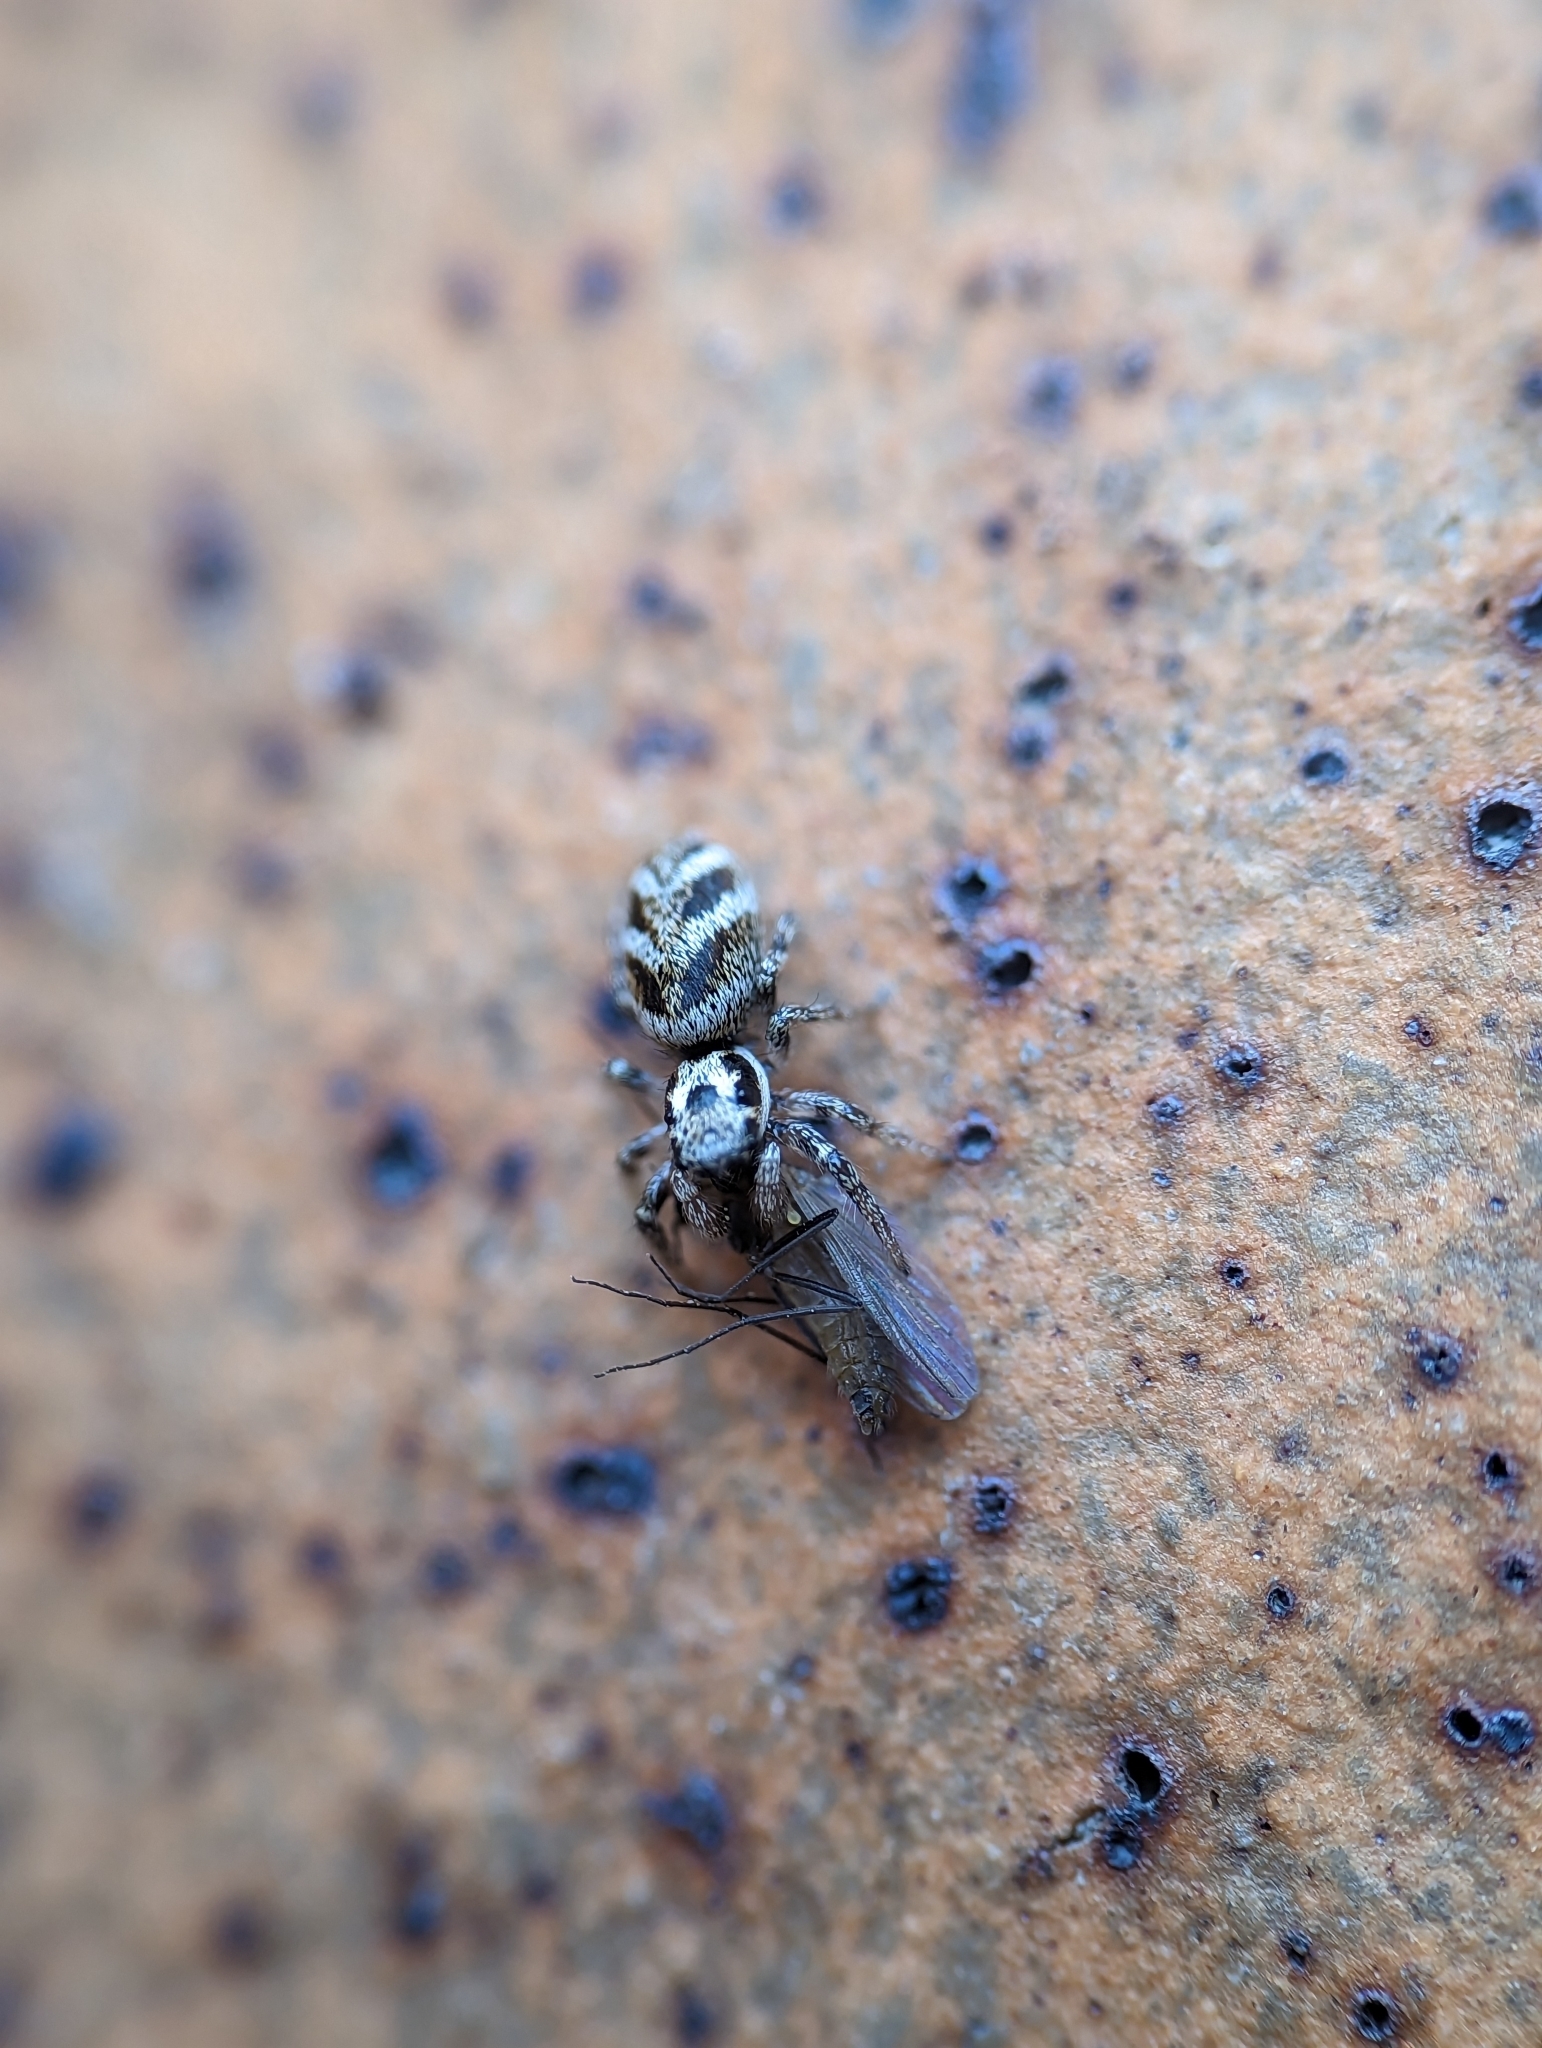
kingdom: Animalia
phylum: Arthropoda
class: Arachnida
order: Araneae
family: Salticidae
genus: Salticus
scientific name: Salticus scenicus
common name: Zebra jumper
